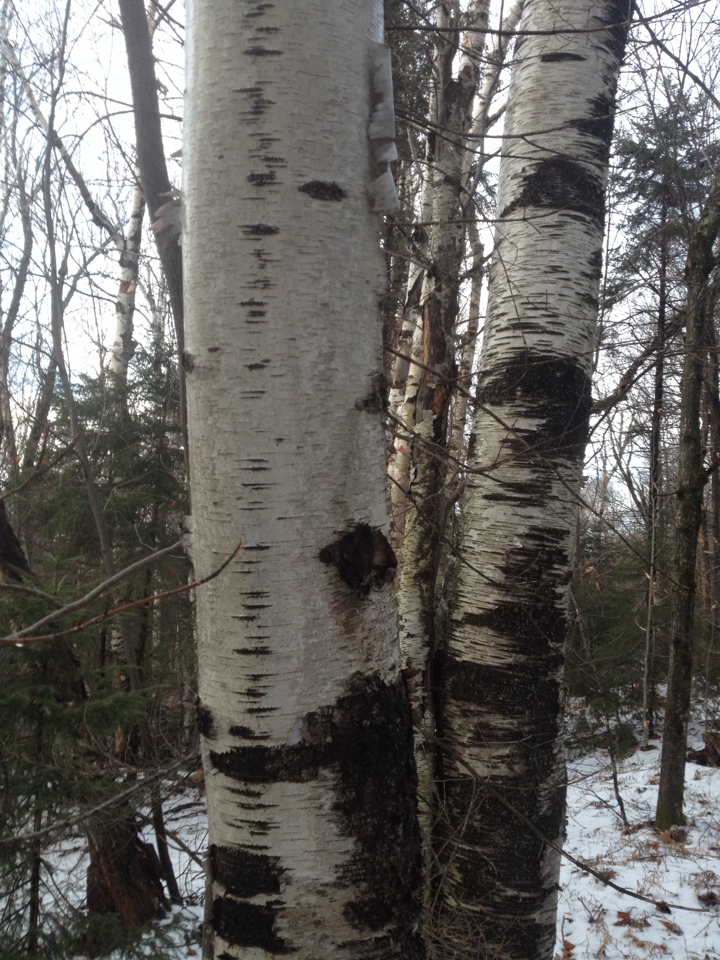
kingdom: Plantae
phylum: Tracheophyta
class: Magnoliopsida
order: Fagales
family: Betulaceae
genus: Betula
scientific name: Betula papyrifera
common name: Paper birch
